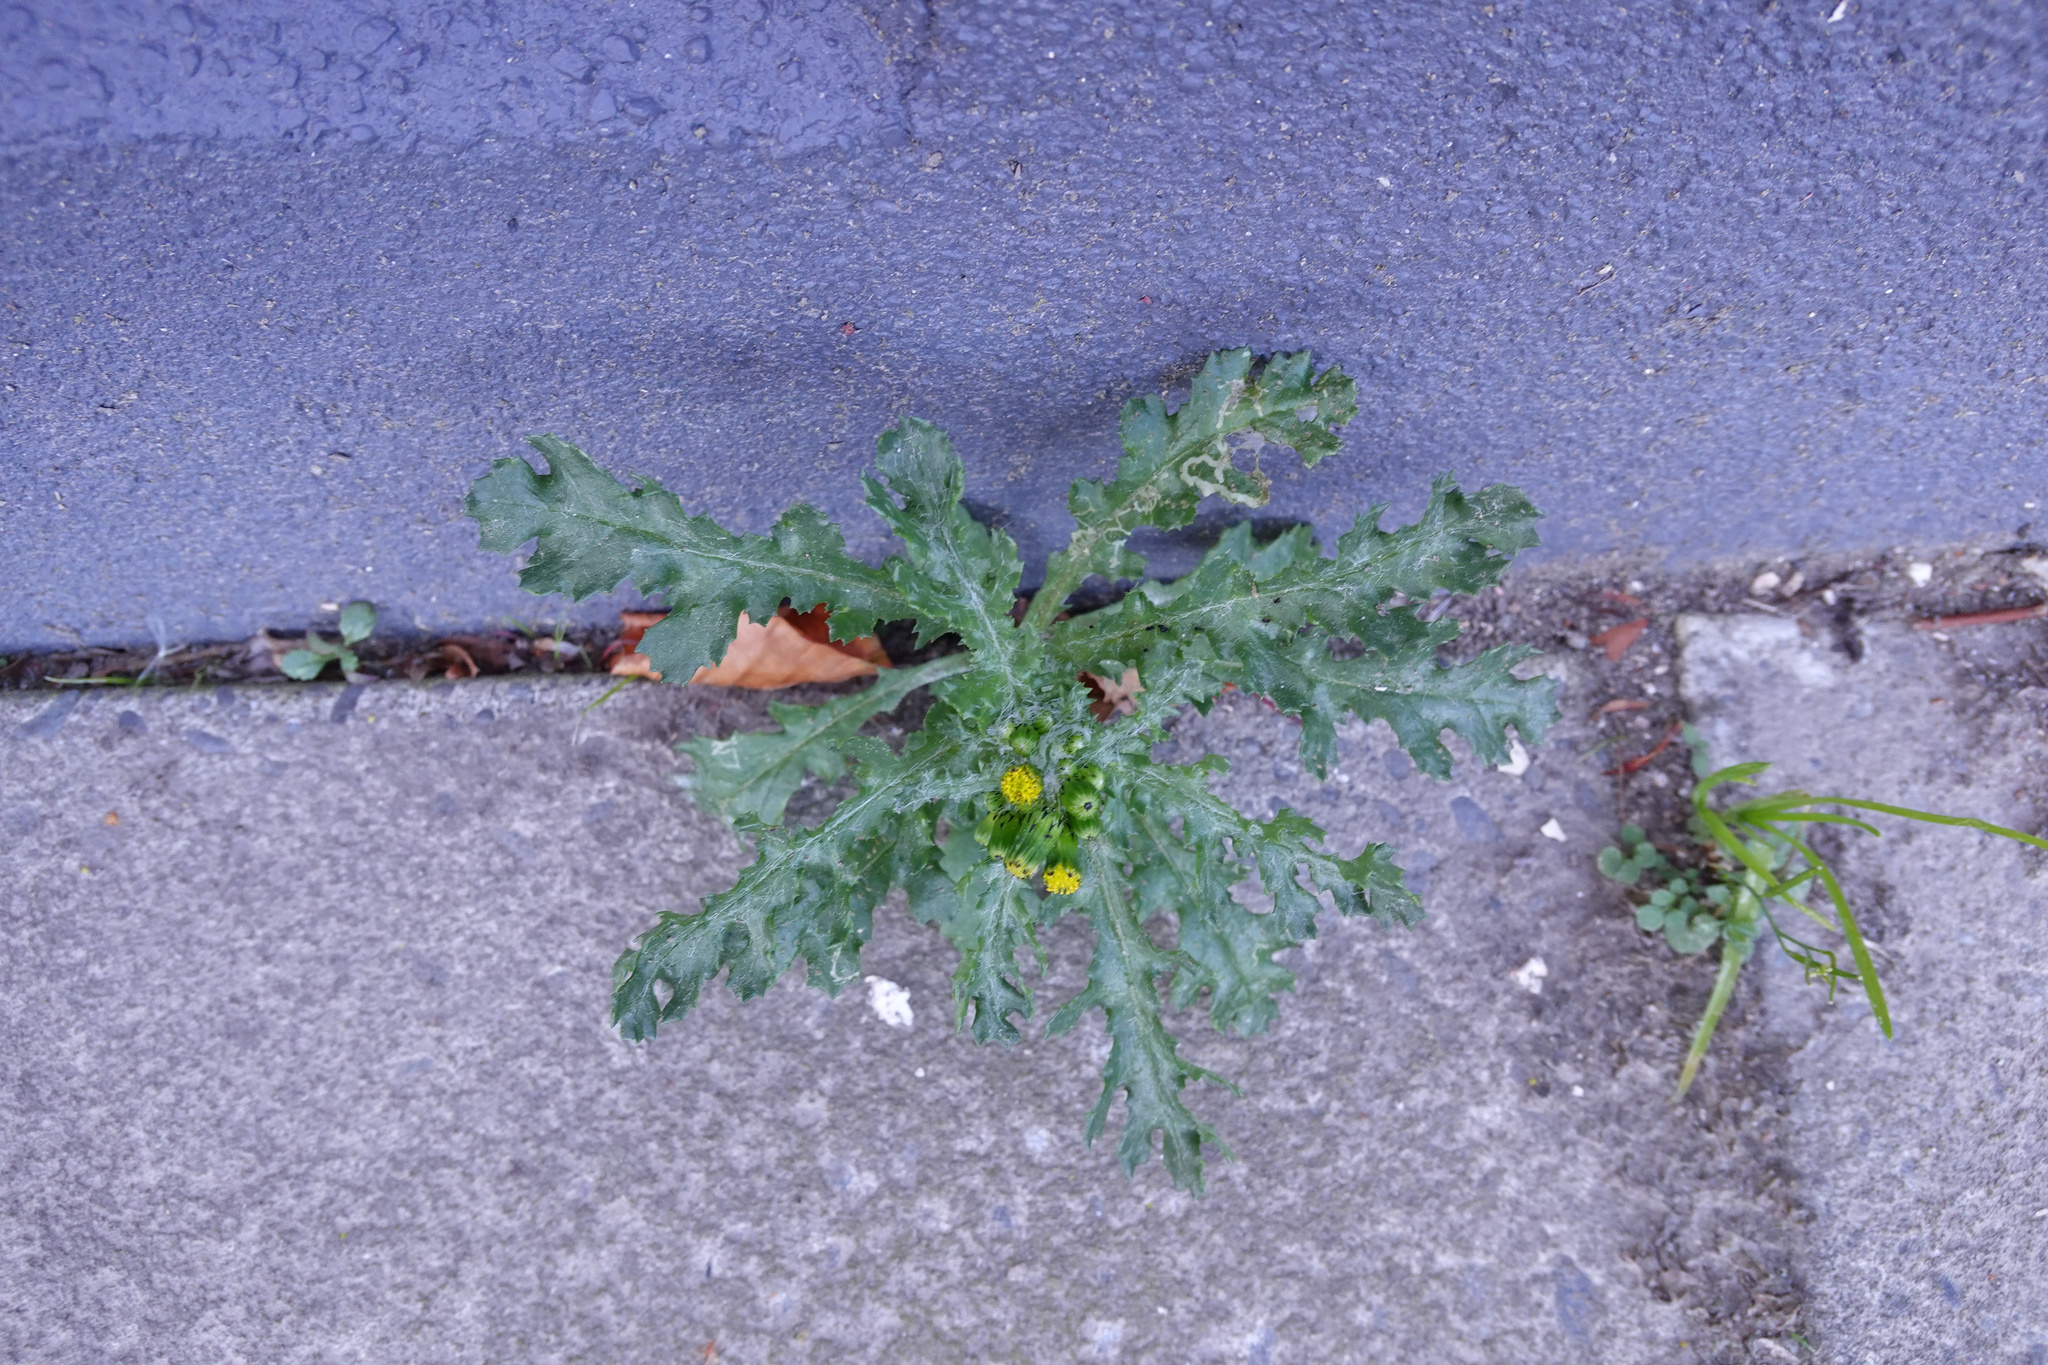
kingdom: Plantae
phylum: Tracheophyta
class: Magnoliopsida
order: Asterales
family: Asteraceae
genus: Senecio
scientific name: Senecio vulgaris
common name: Old-man-in-the-spring
